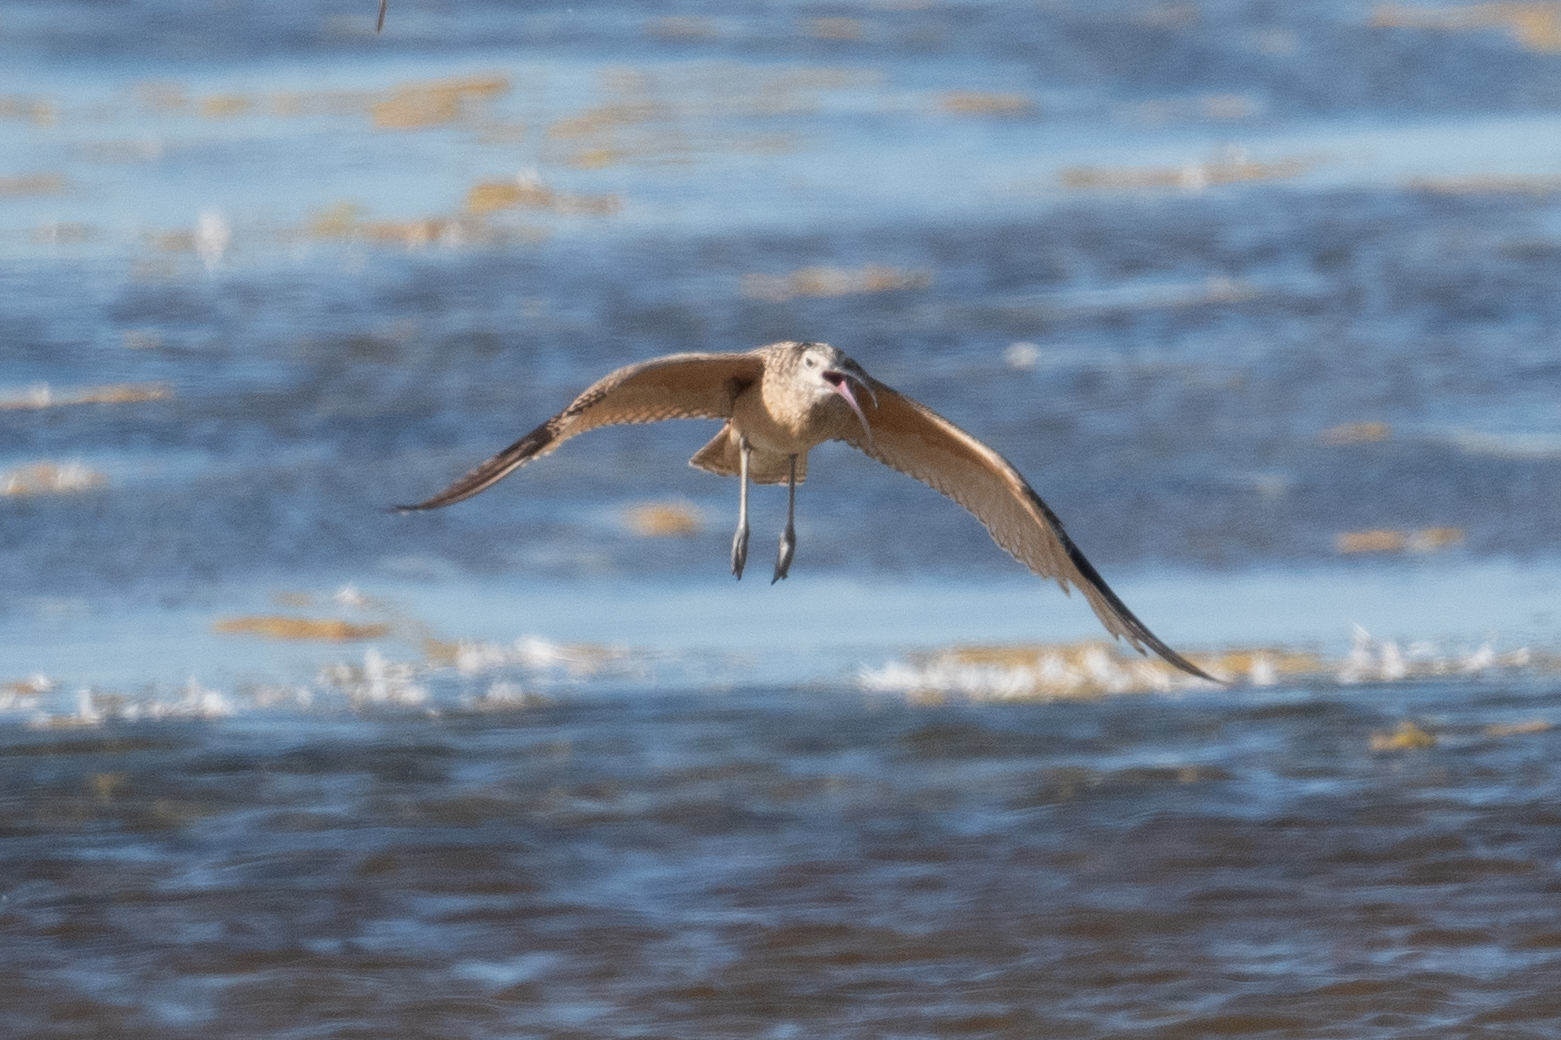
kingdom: Animalia
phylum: Chordata
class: Aves
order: Charadriiformes
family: Scolopacidae
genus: Numenius
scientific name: Numenius americanus
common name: Long-billed curlew
